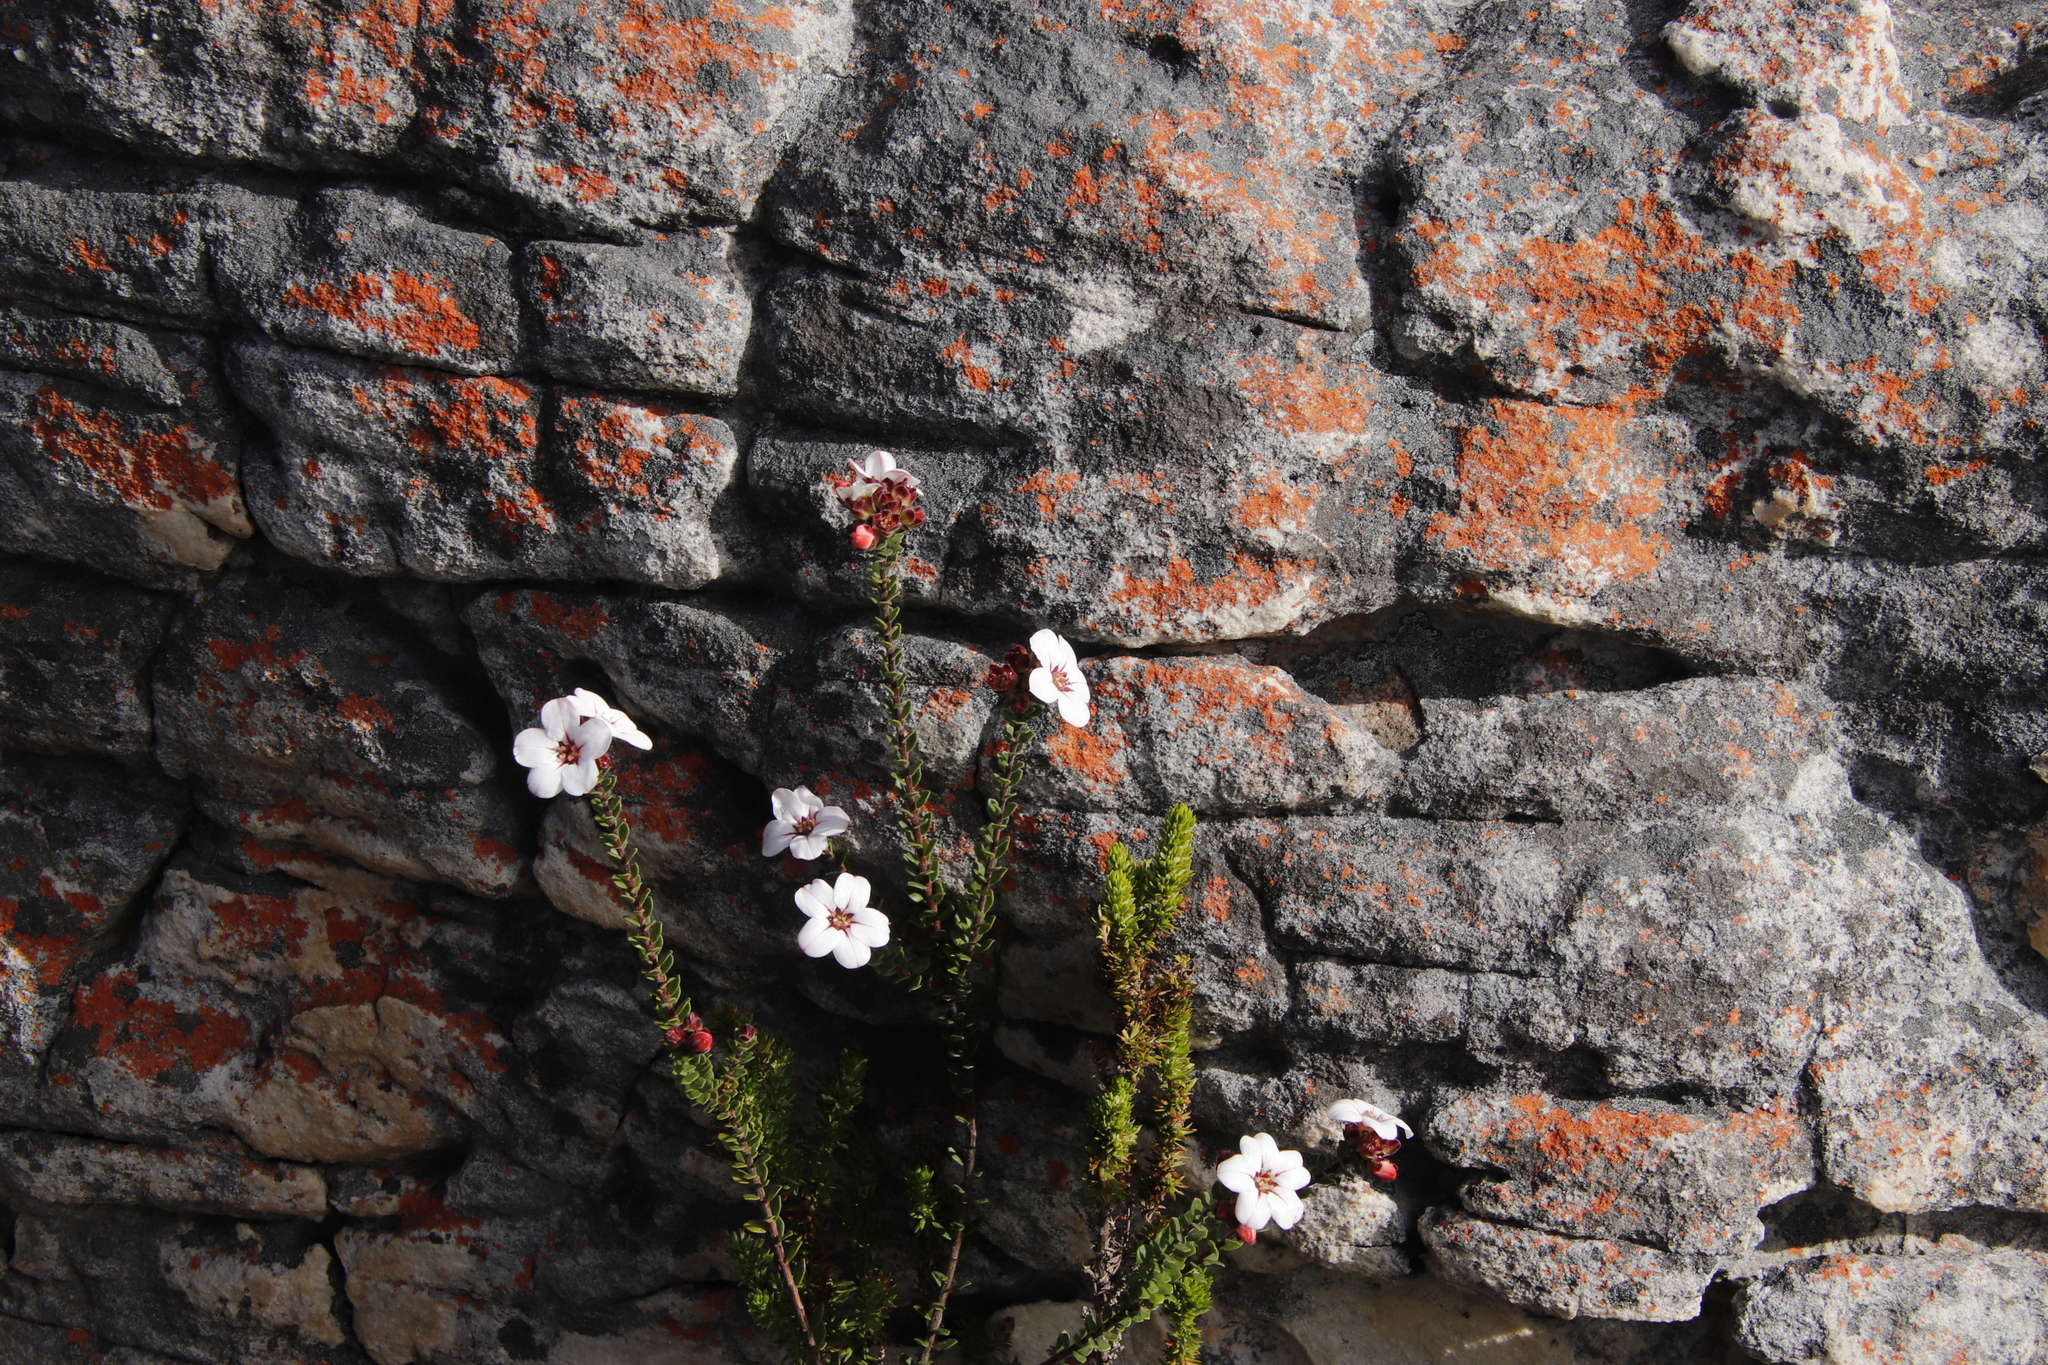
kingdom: Plantae
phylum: Tracheophyta
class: Magnoliopsida
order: Sapindales
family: Rutaceae
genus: Adenandra
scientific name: Adenandra villosa
